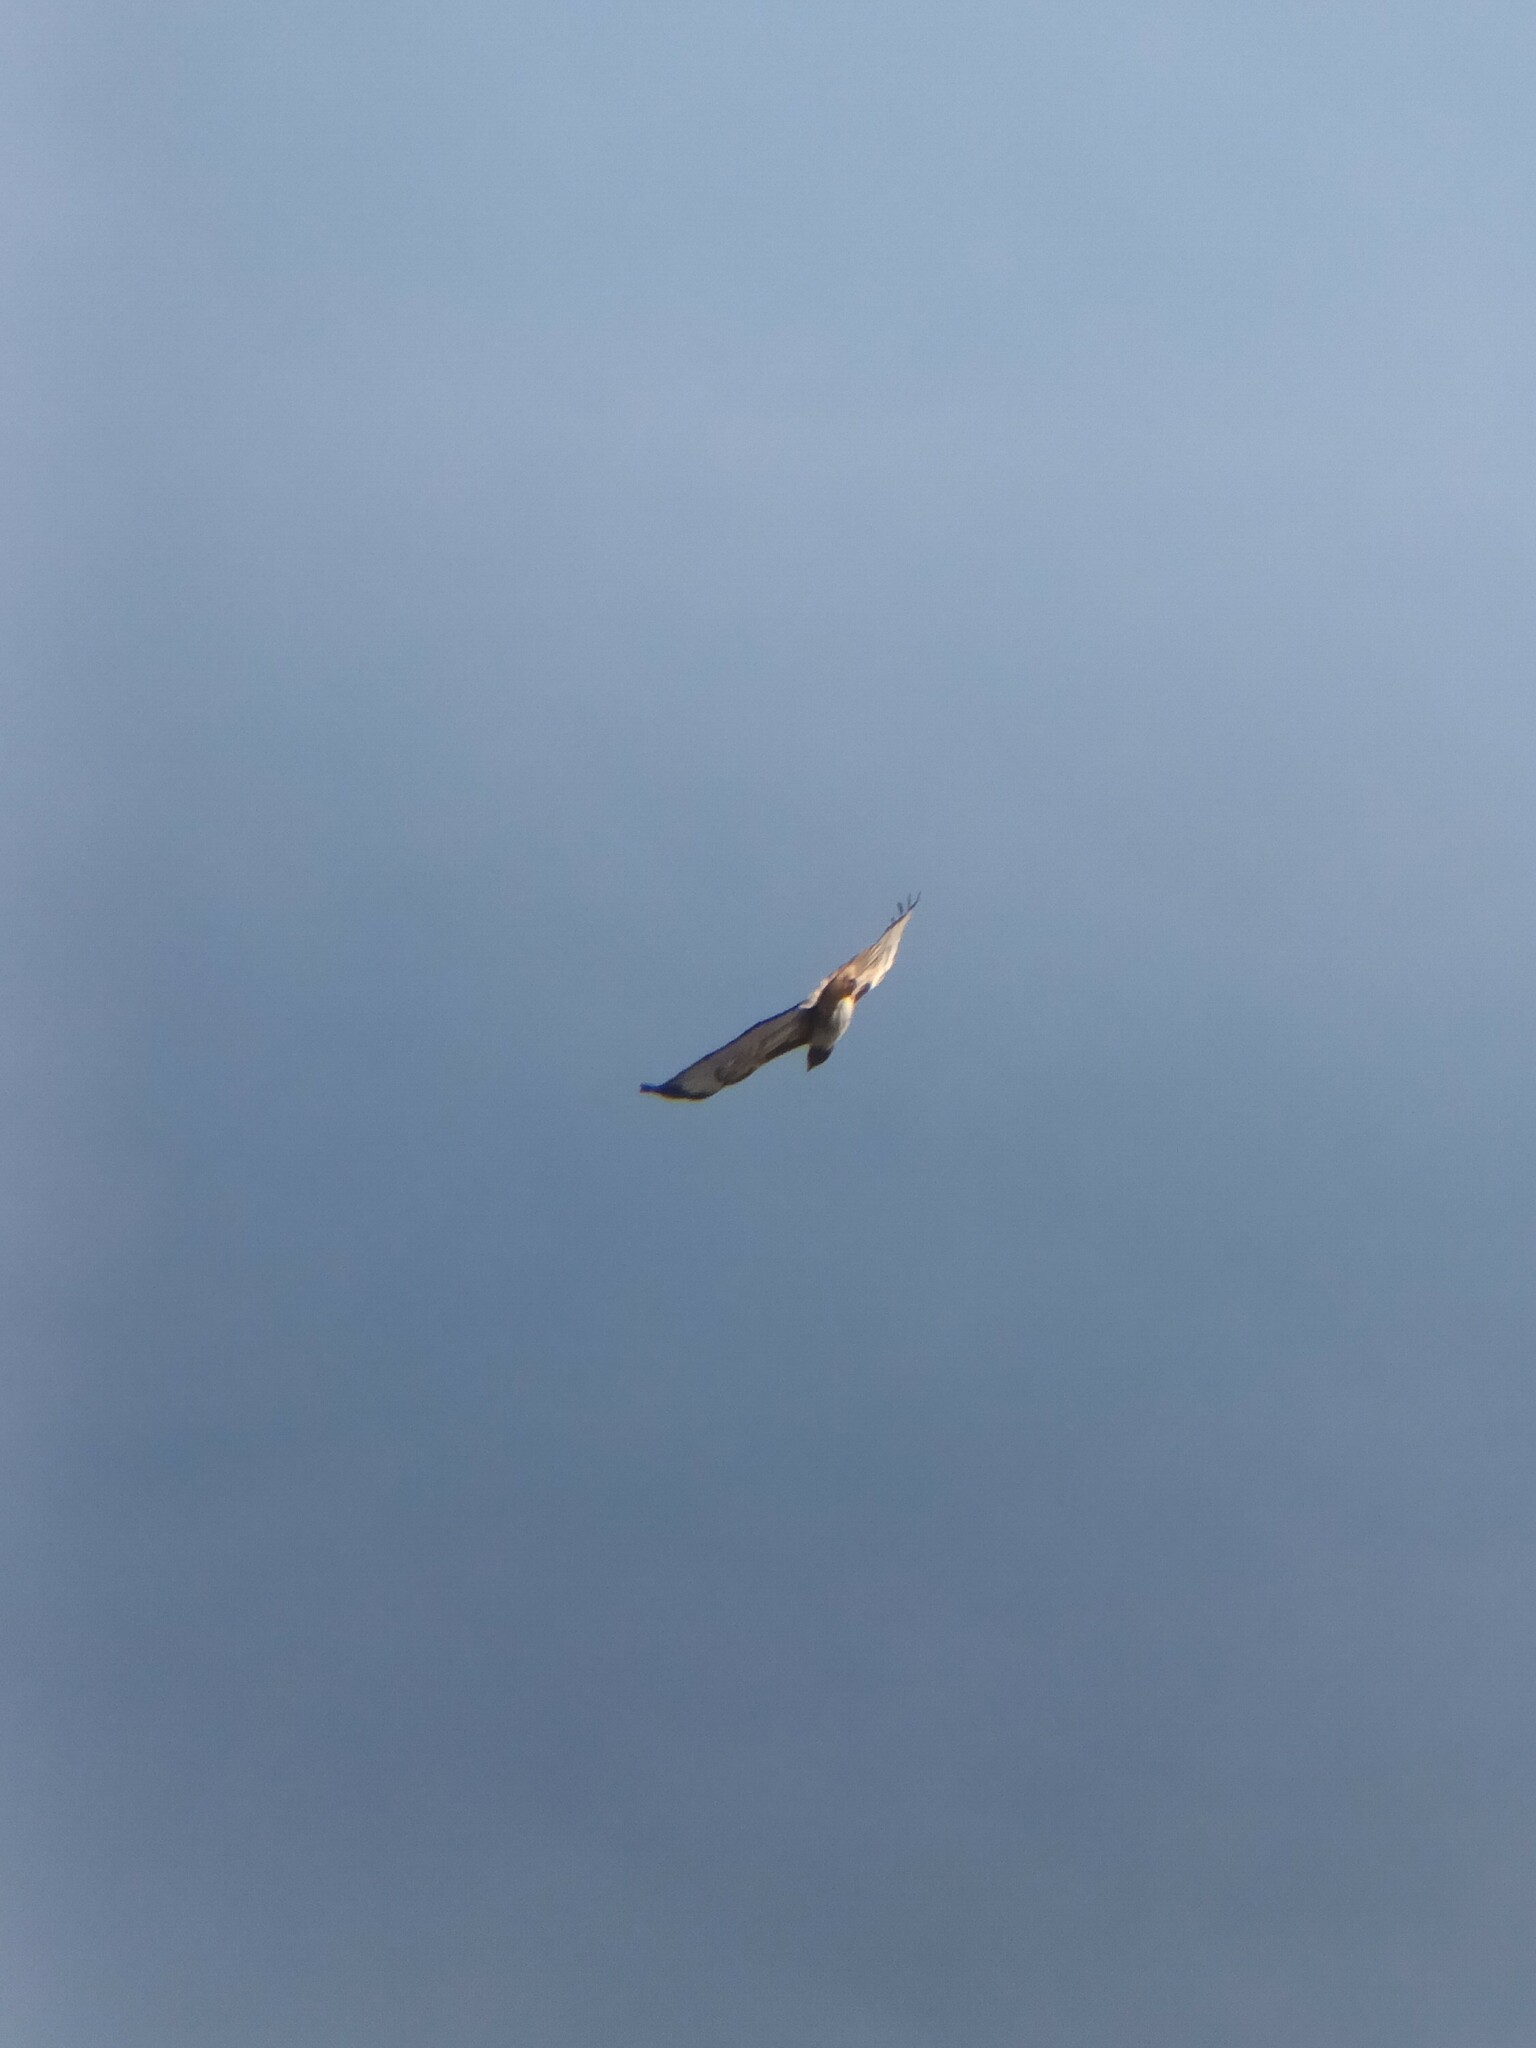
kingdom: Animalia
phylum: Chordata
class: Aves
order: Accipitriformes
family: Accipitridae
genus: Buteo
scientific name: Buteo jamaicensis
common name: Red-tailed hawk
